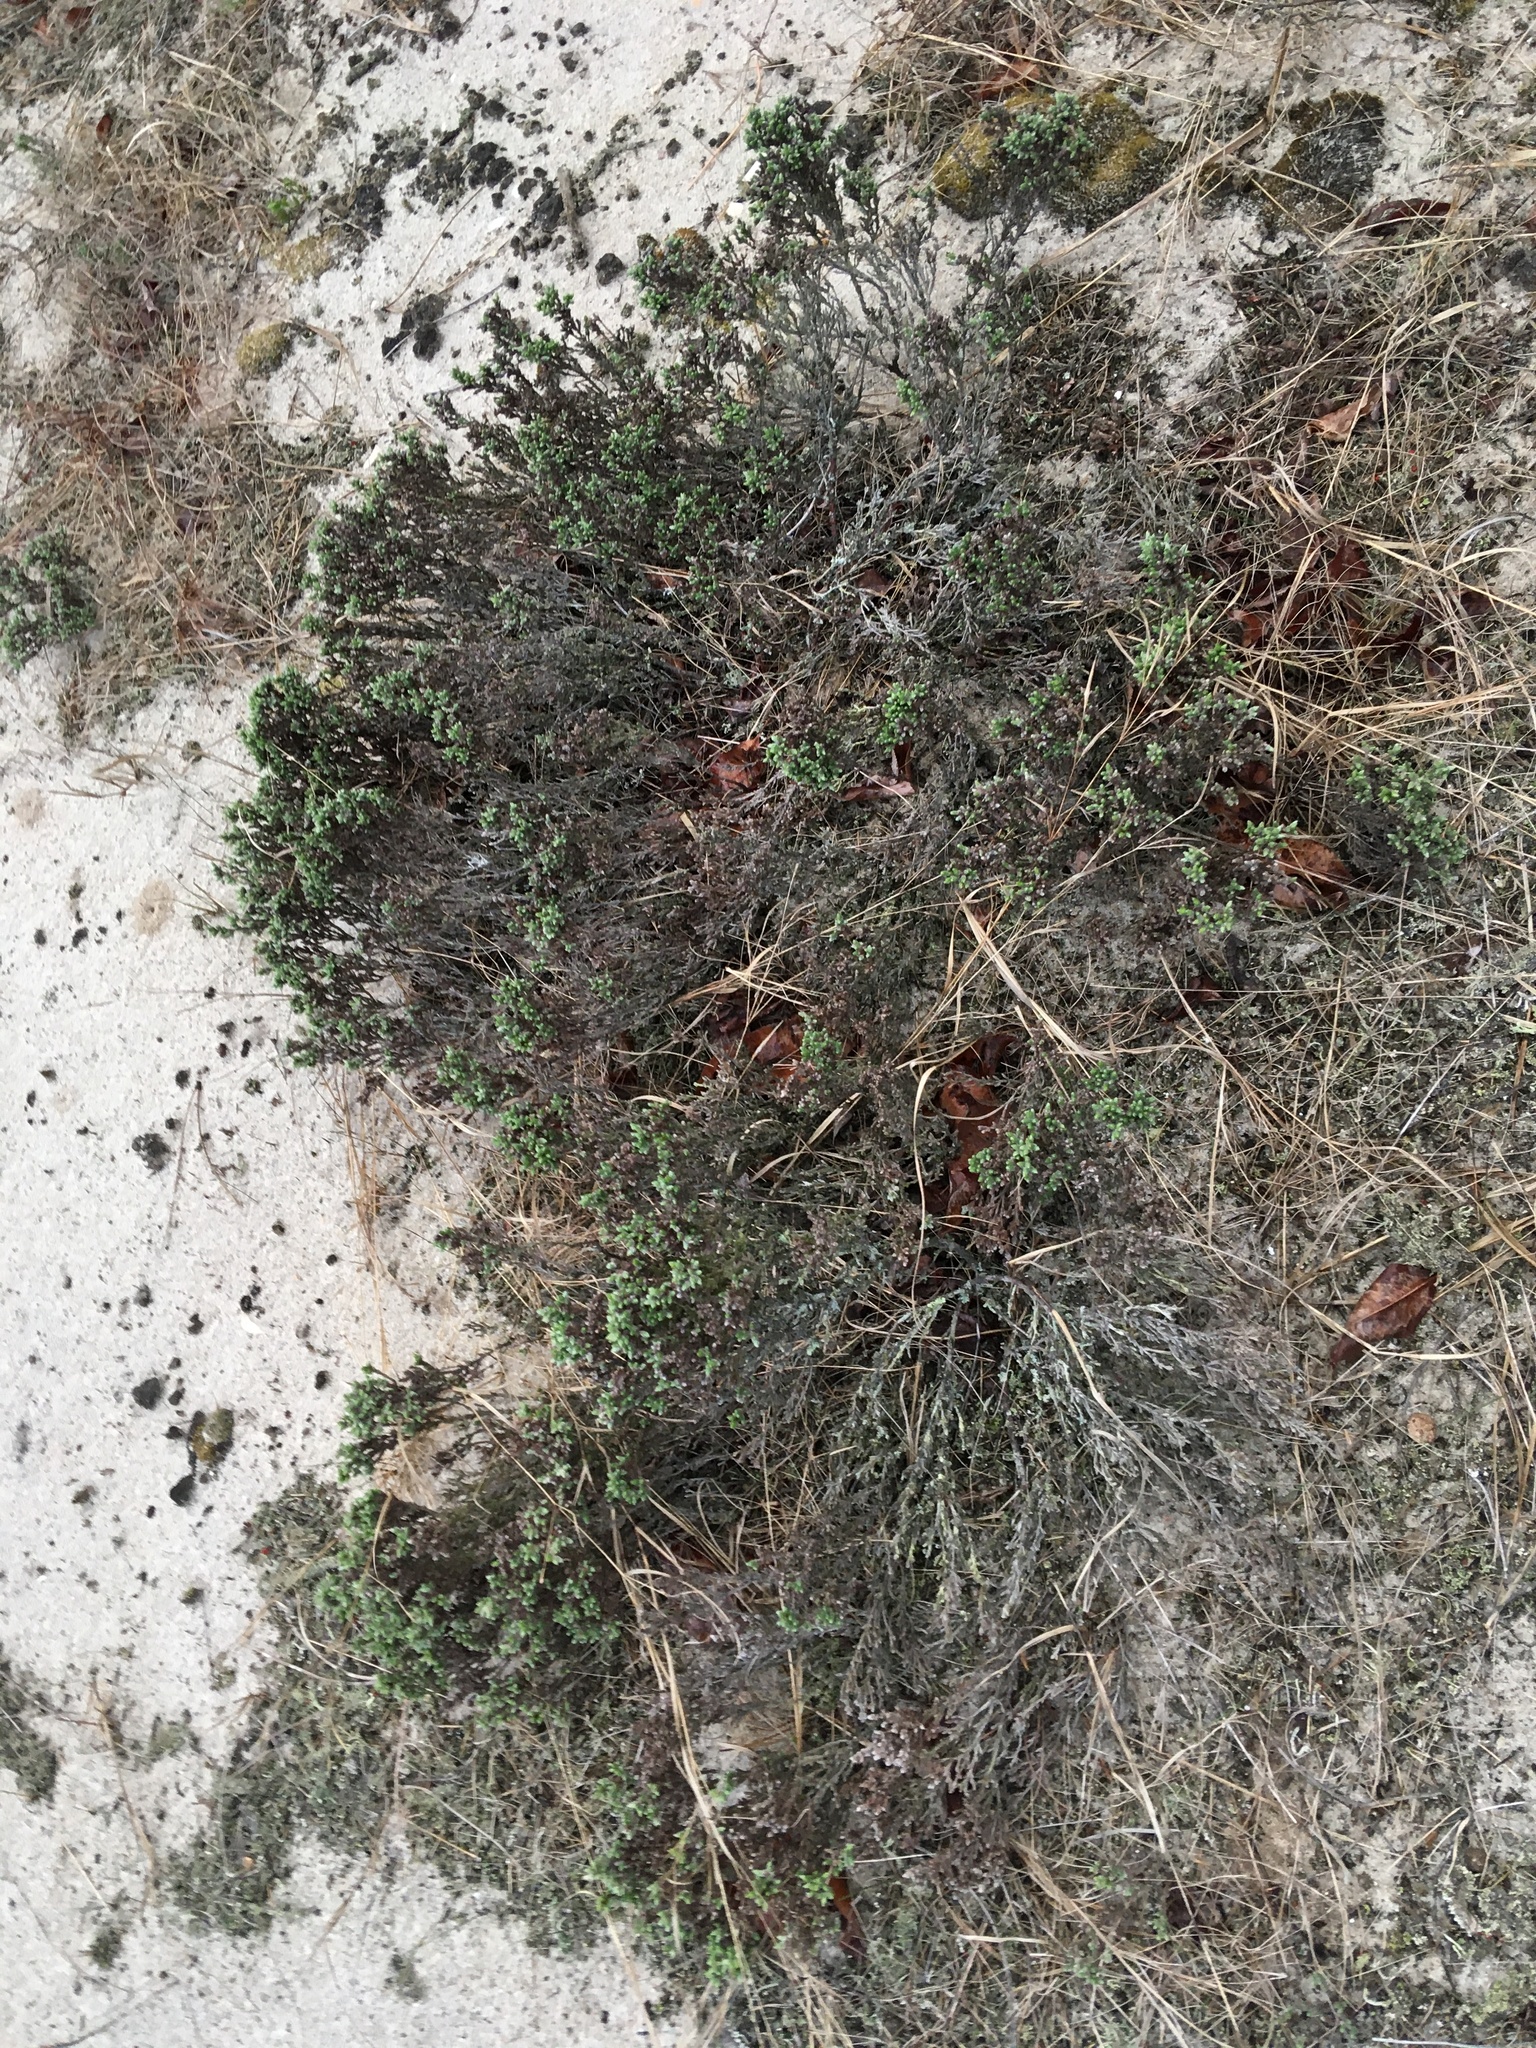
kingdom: Plantae
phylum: Tracheophyta
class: Magnoliopsida
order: Malvales
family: Cistaceae
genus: Hudsonia
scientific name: Hudsonia tomentosa
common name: Beach-heath
